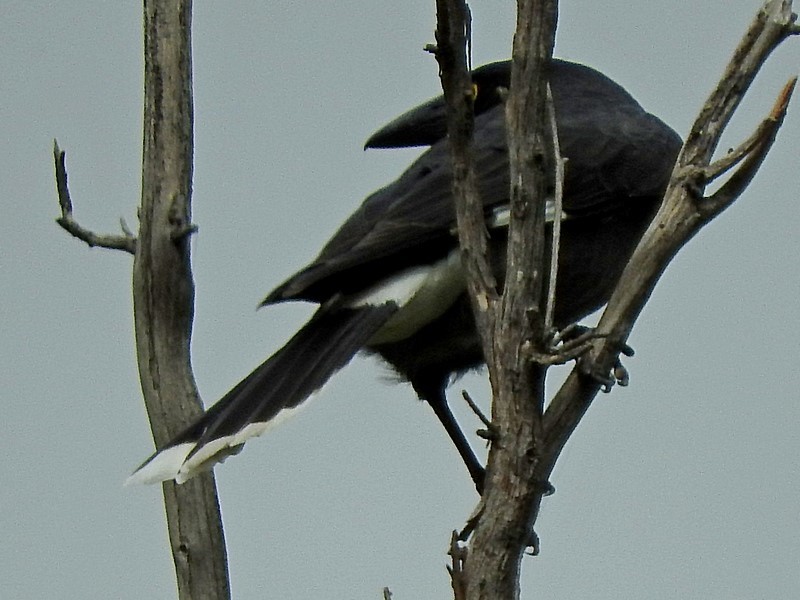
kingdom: Animalia
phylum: Chordata
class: Aves
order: Passeriformes
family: Cracticidae
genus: Strepera
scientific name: Strepera graculina
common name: Pied currawong
